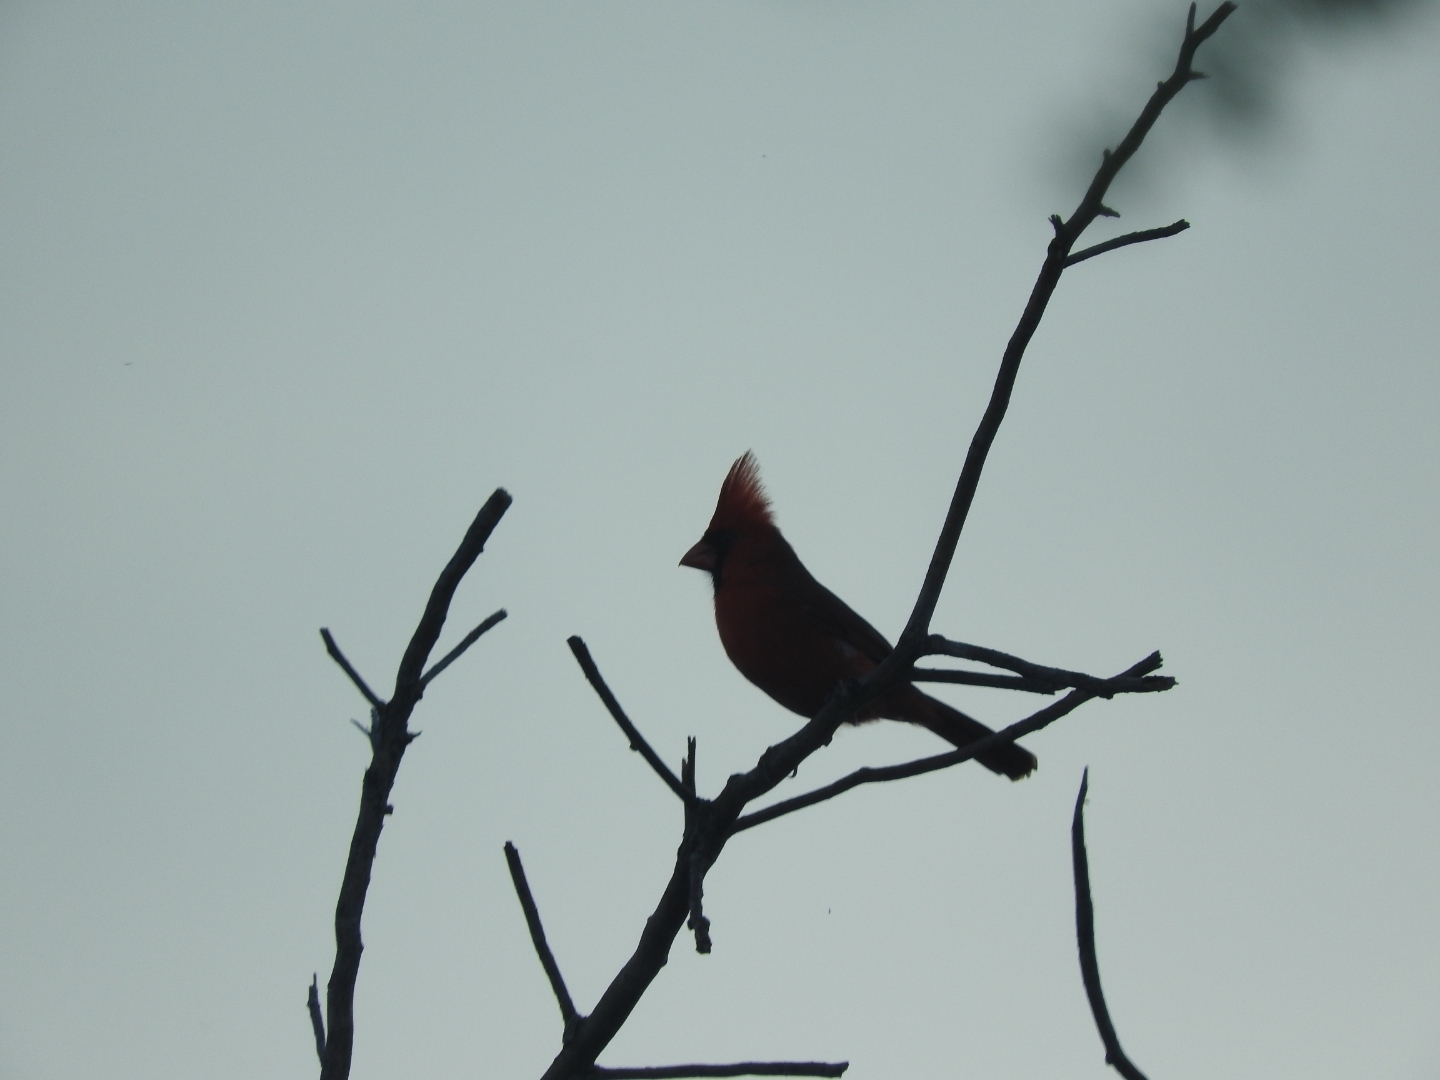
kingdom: Animalia
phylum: Chordata
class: Aves
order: Passeriformes
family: Cardinalidae
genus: Cardinalis
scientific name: Cardinalis cardinalis
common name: Northern cardinal
